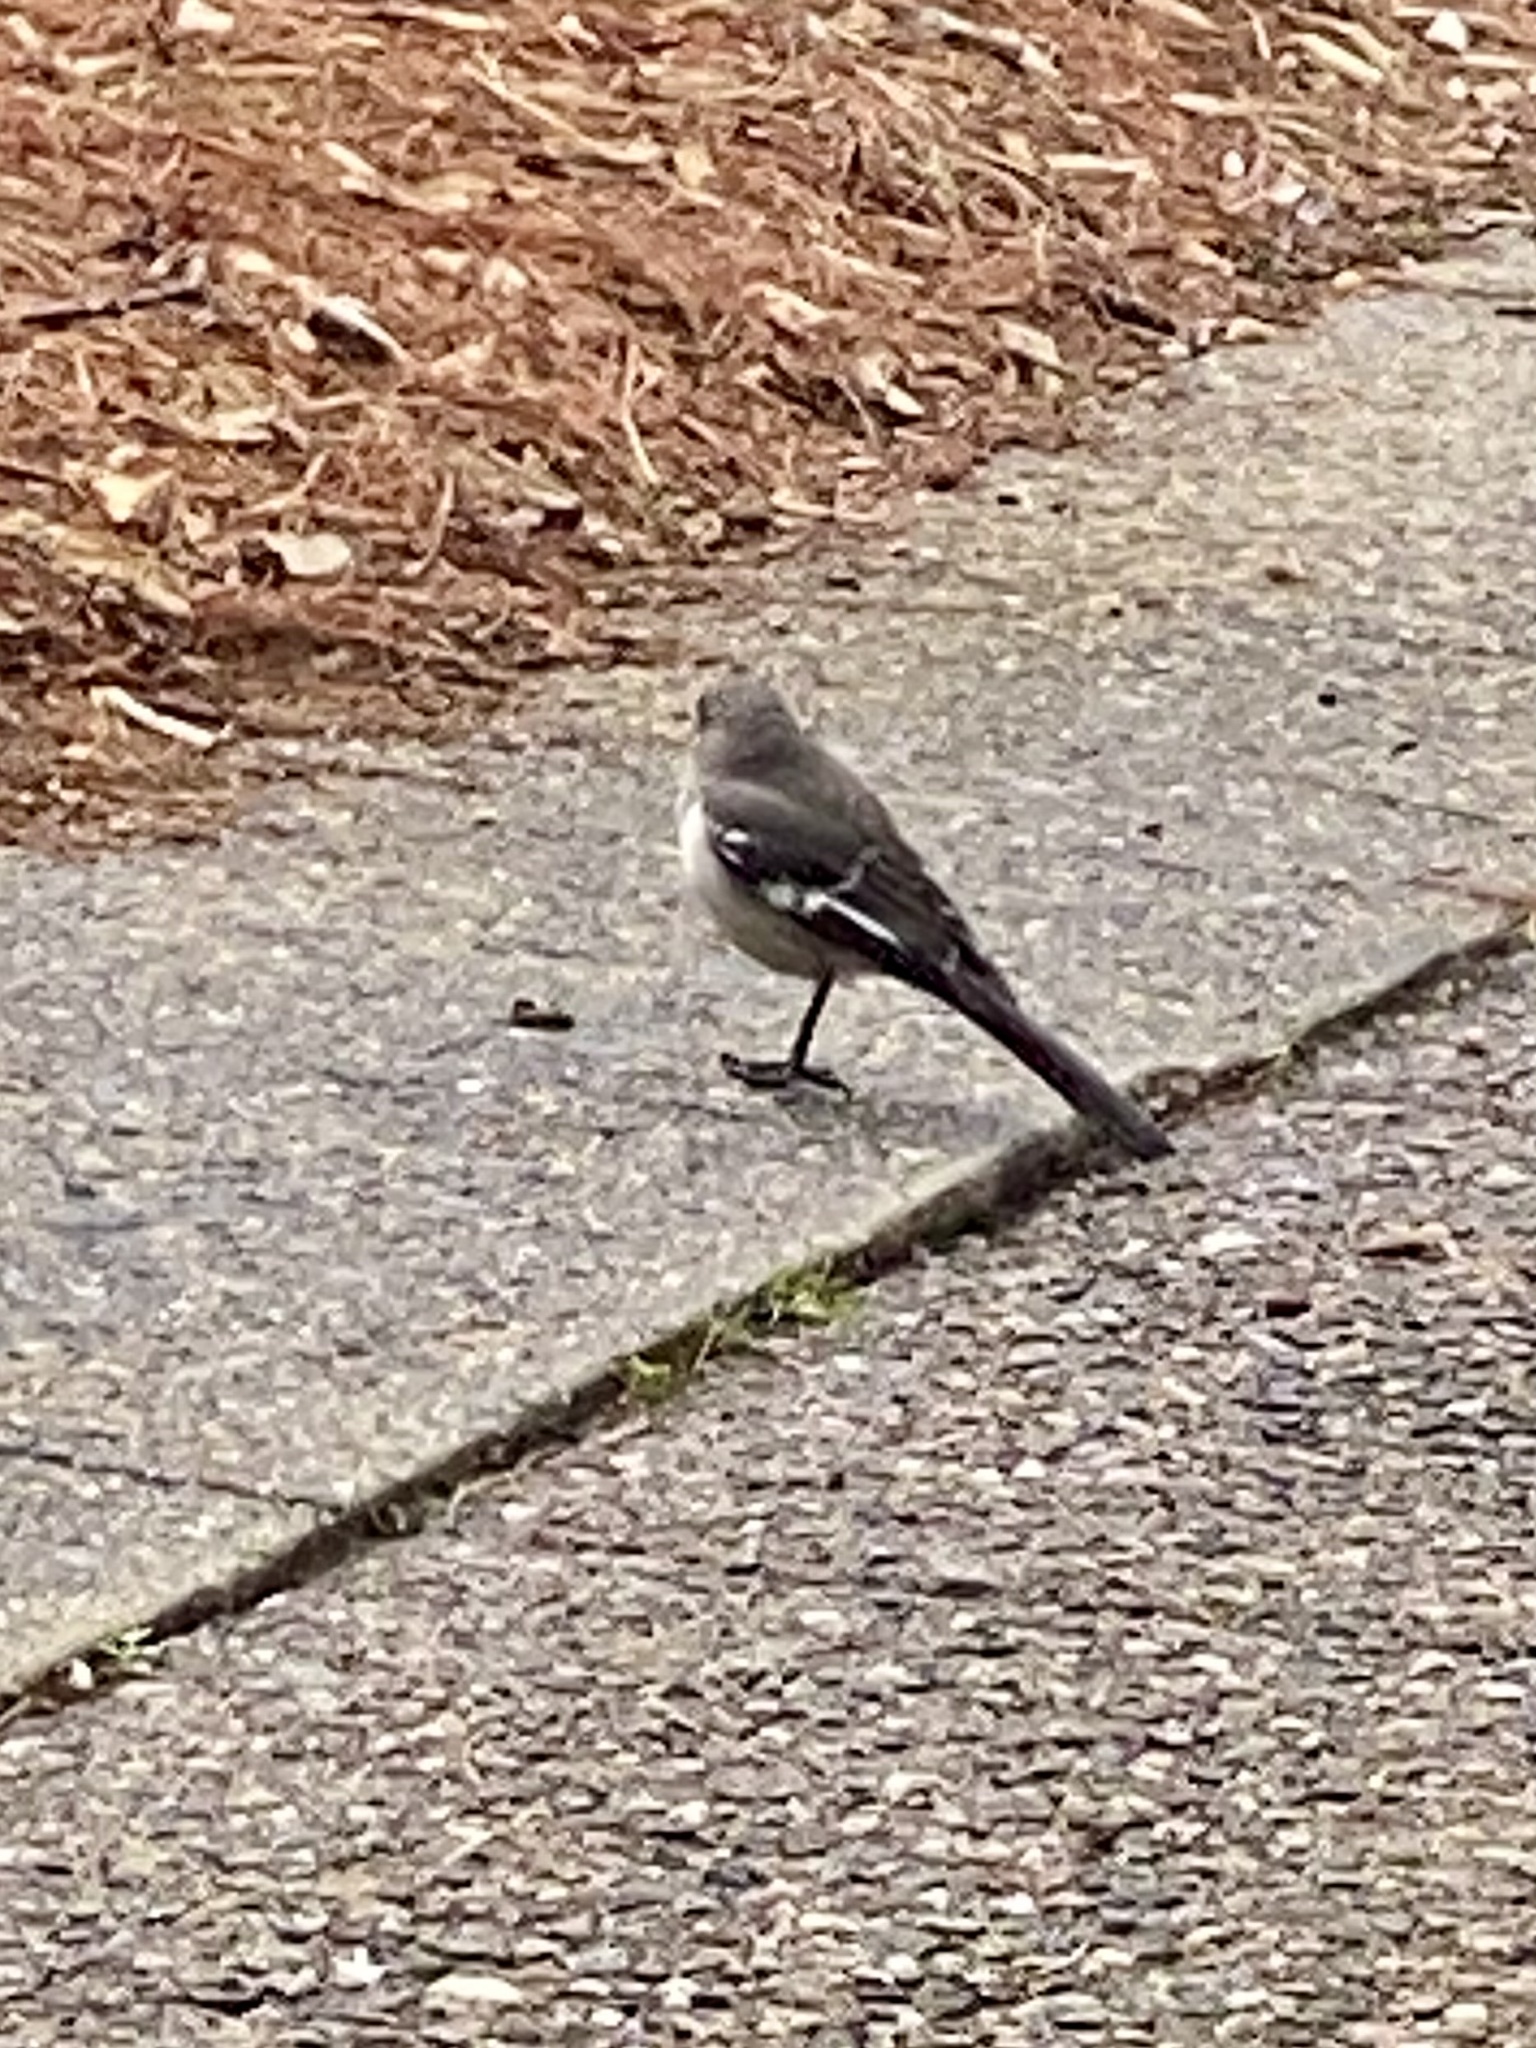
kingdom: Animalia
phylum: Chordata
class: Aves
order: Passeriformes
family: Mimidae
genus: Mimus
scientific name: Mimus polyglottos
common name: Northern mockingbird
